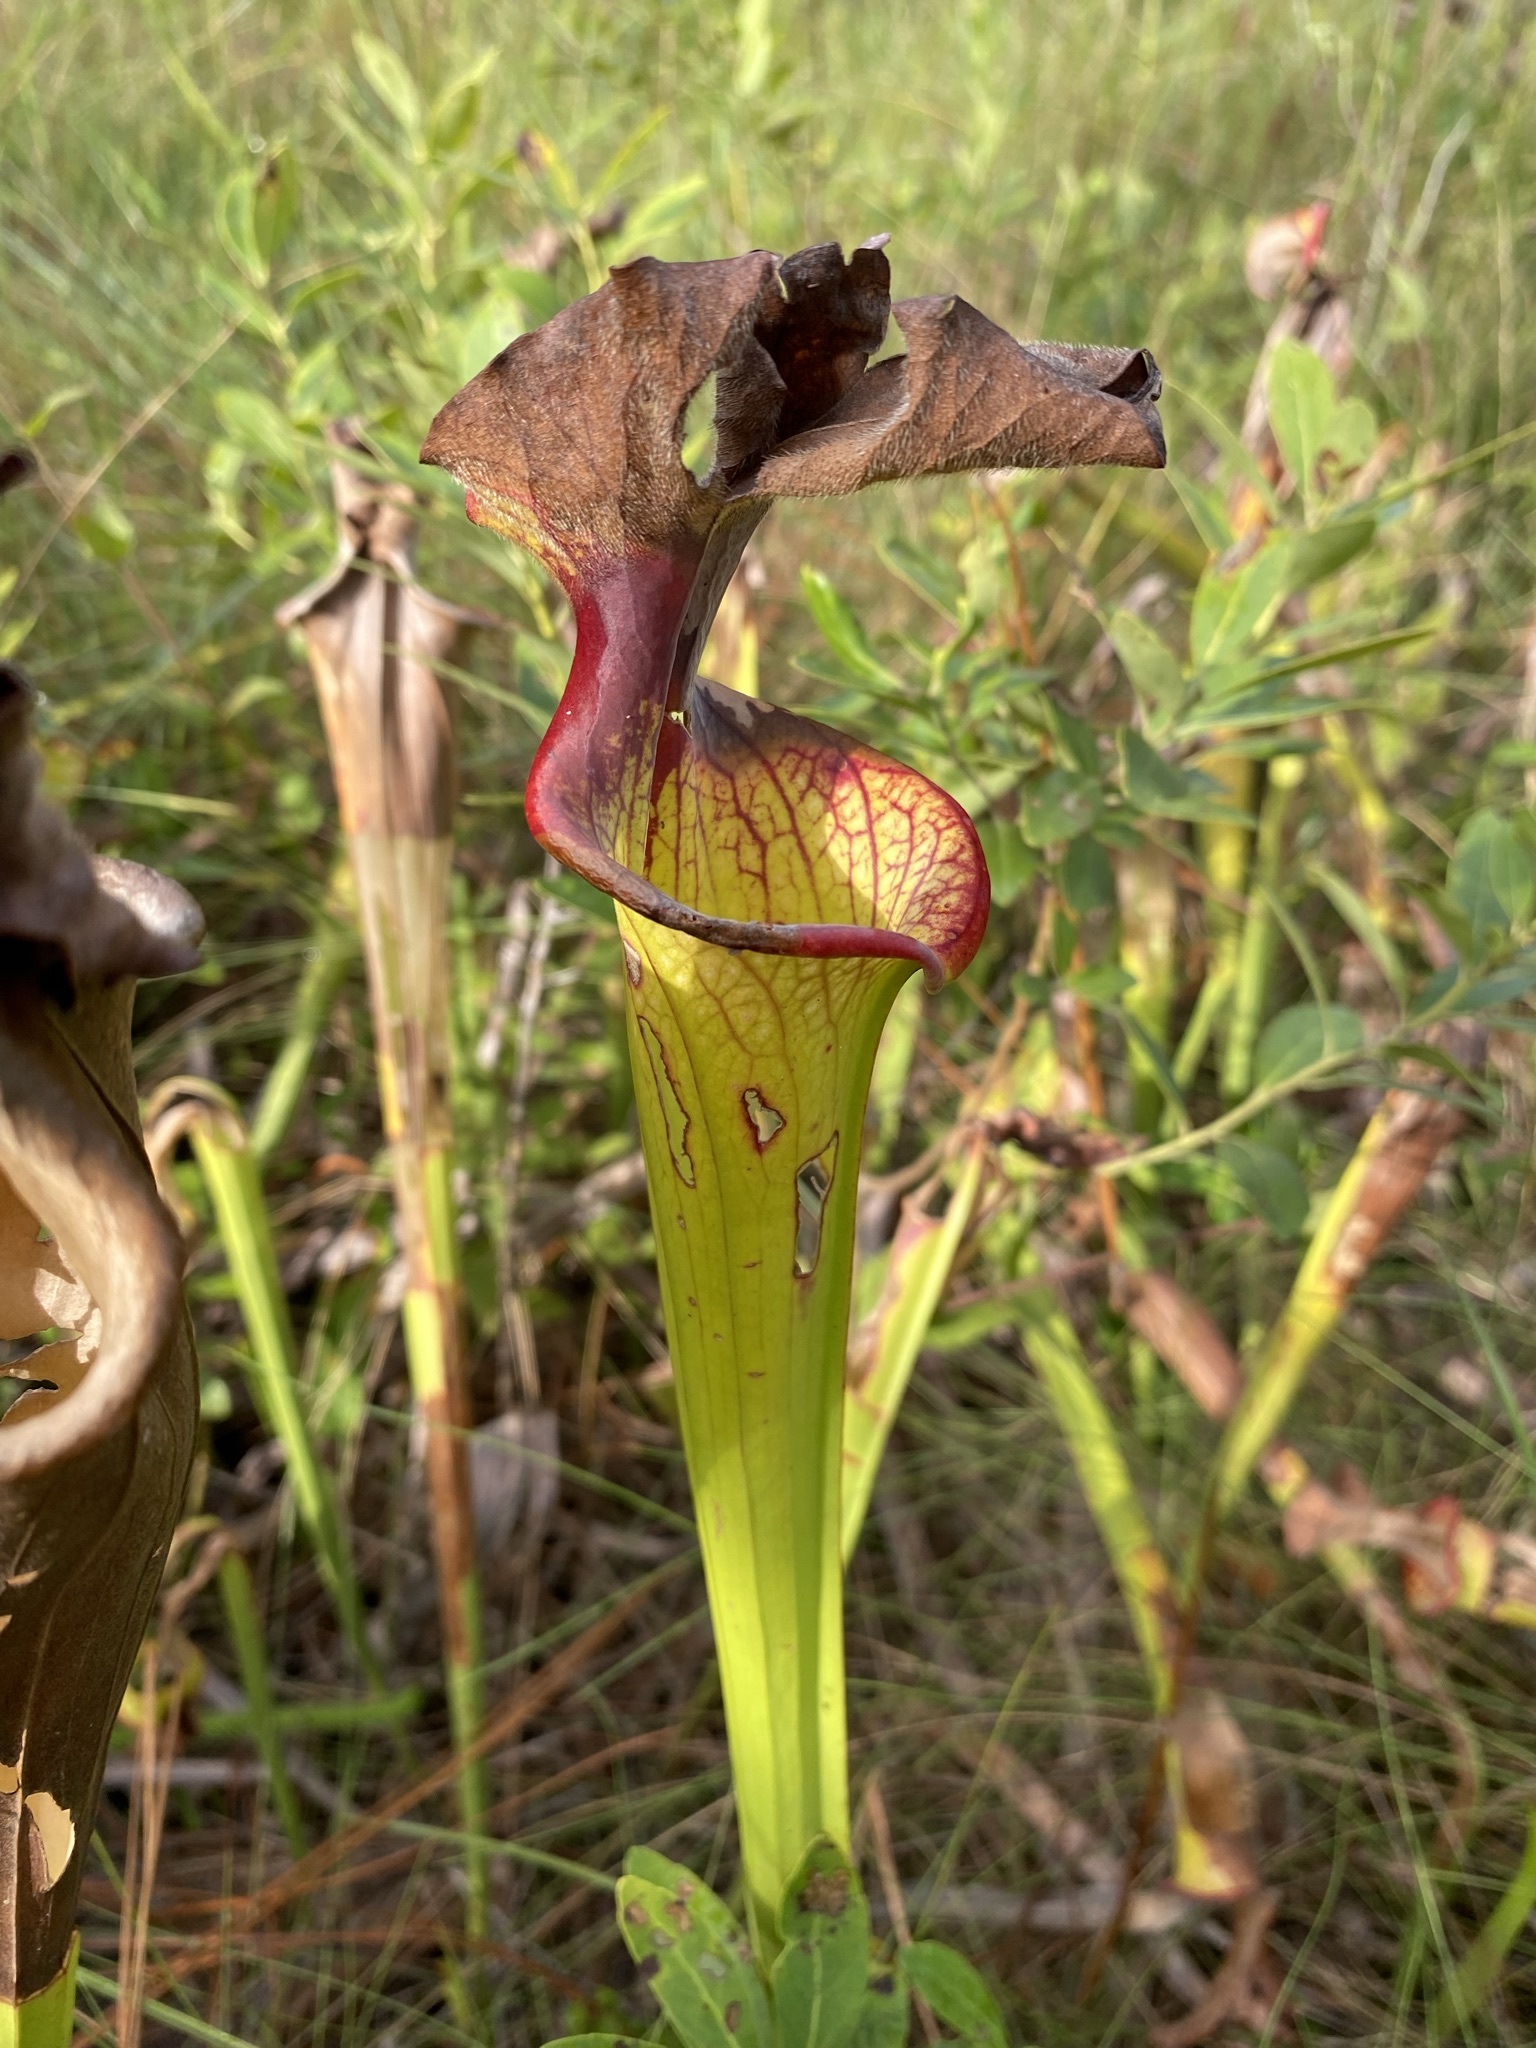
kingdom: Plantae
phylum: Tracheophyta
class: Magnoliopsida
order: Ericales
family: Sarraceniaceae
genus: Sarracenia
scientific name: Sarracenia moorei
